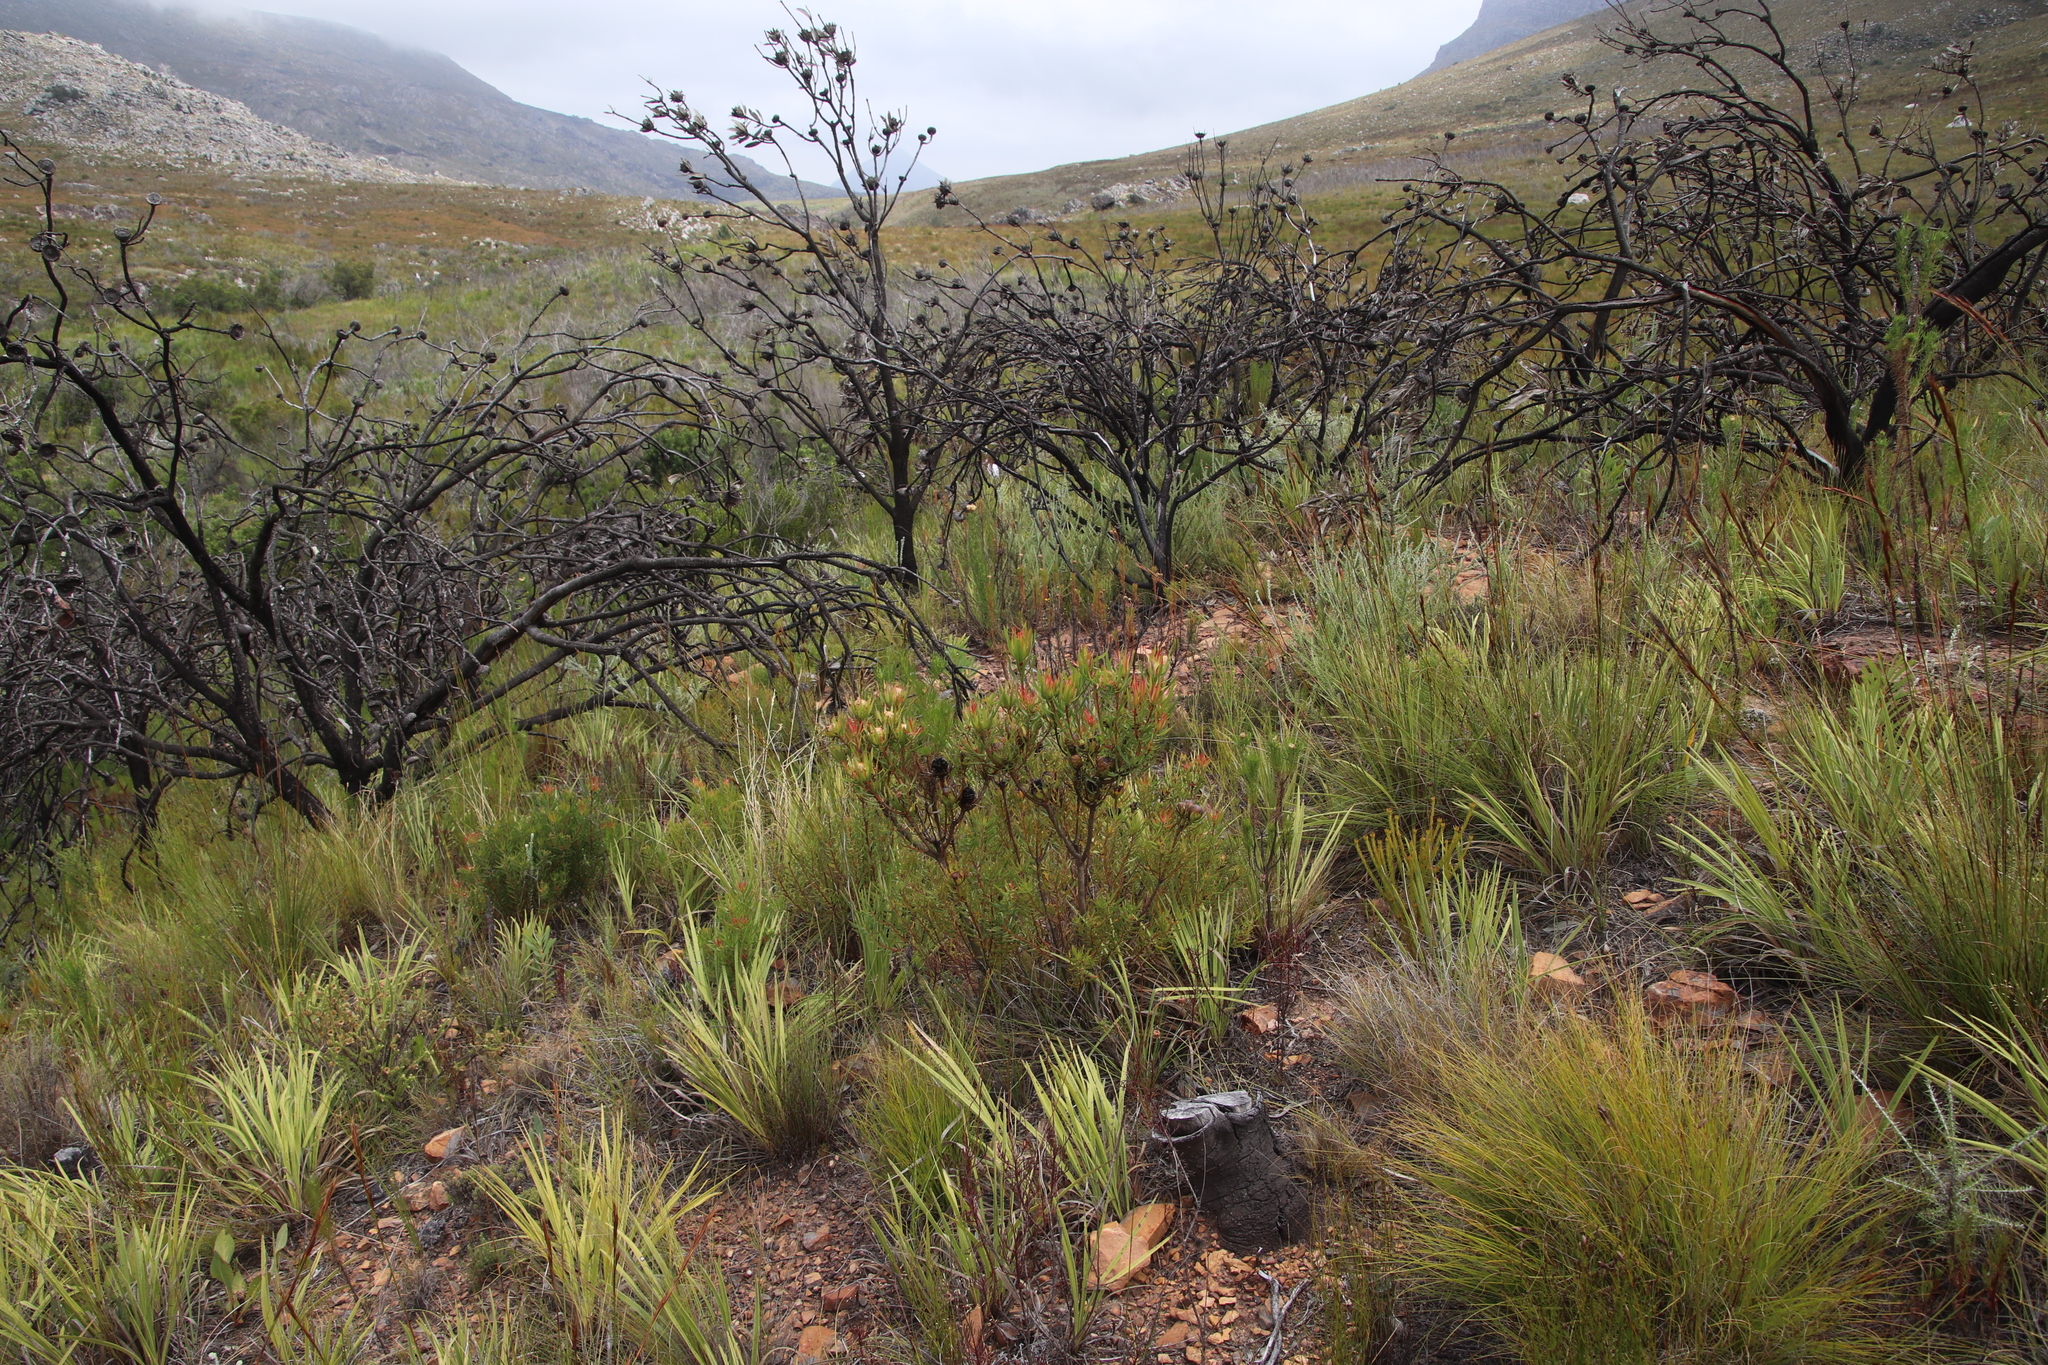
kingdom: Plantae
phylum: Tracheophyta
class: Magnoliopsida
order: Proteales
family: Proteaceae
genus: Leucadendron
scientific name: Leucadendron spissifolium
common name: Spear-leaf conebush
